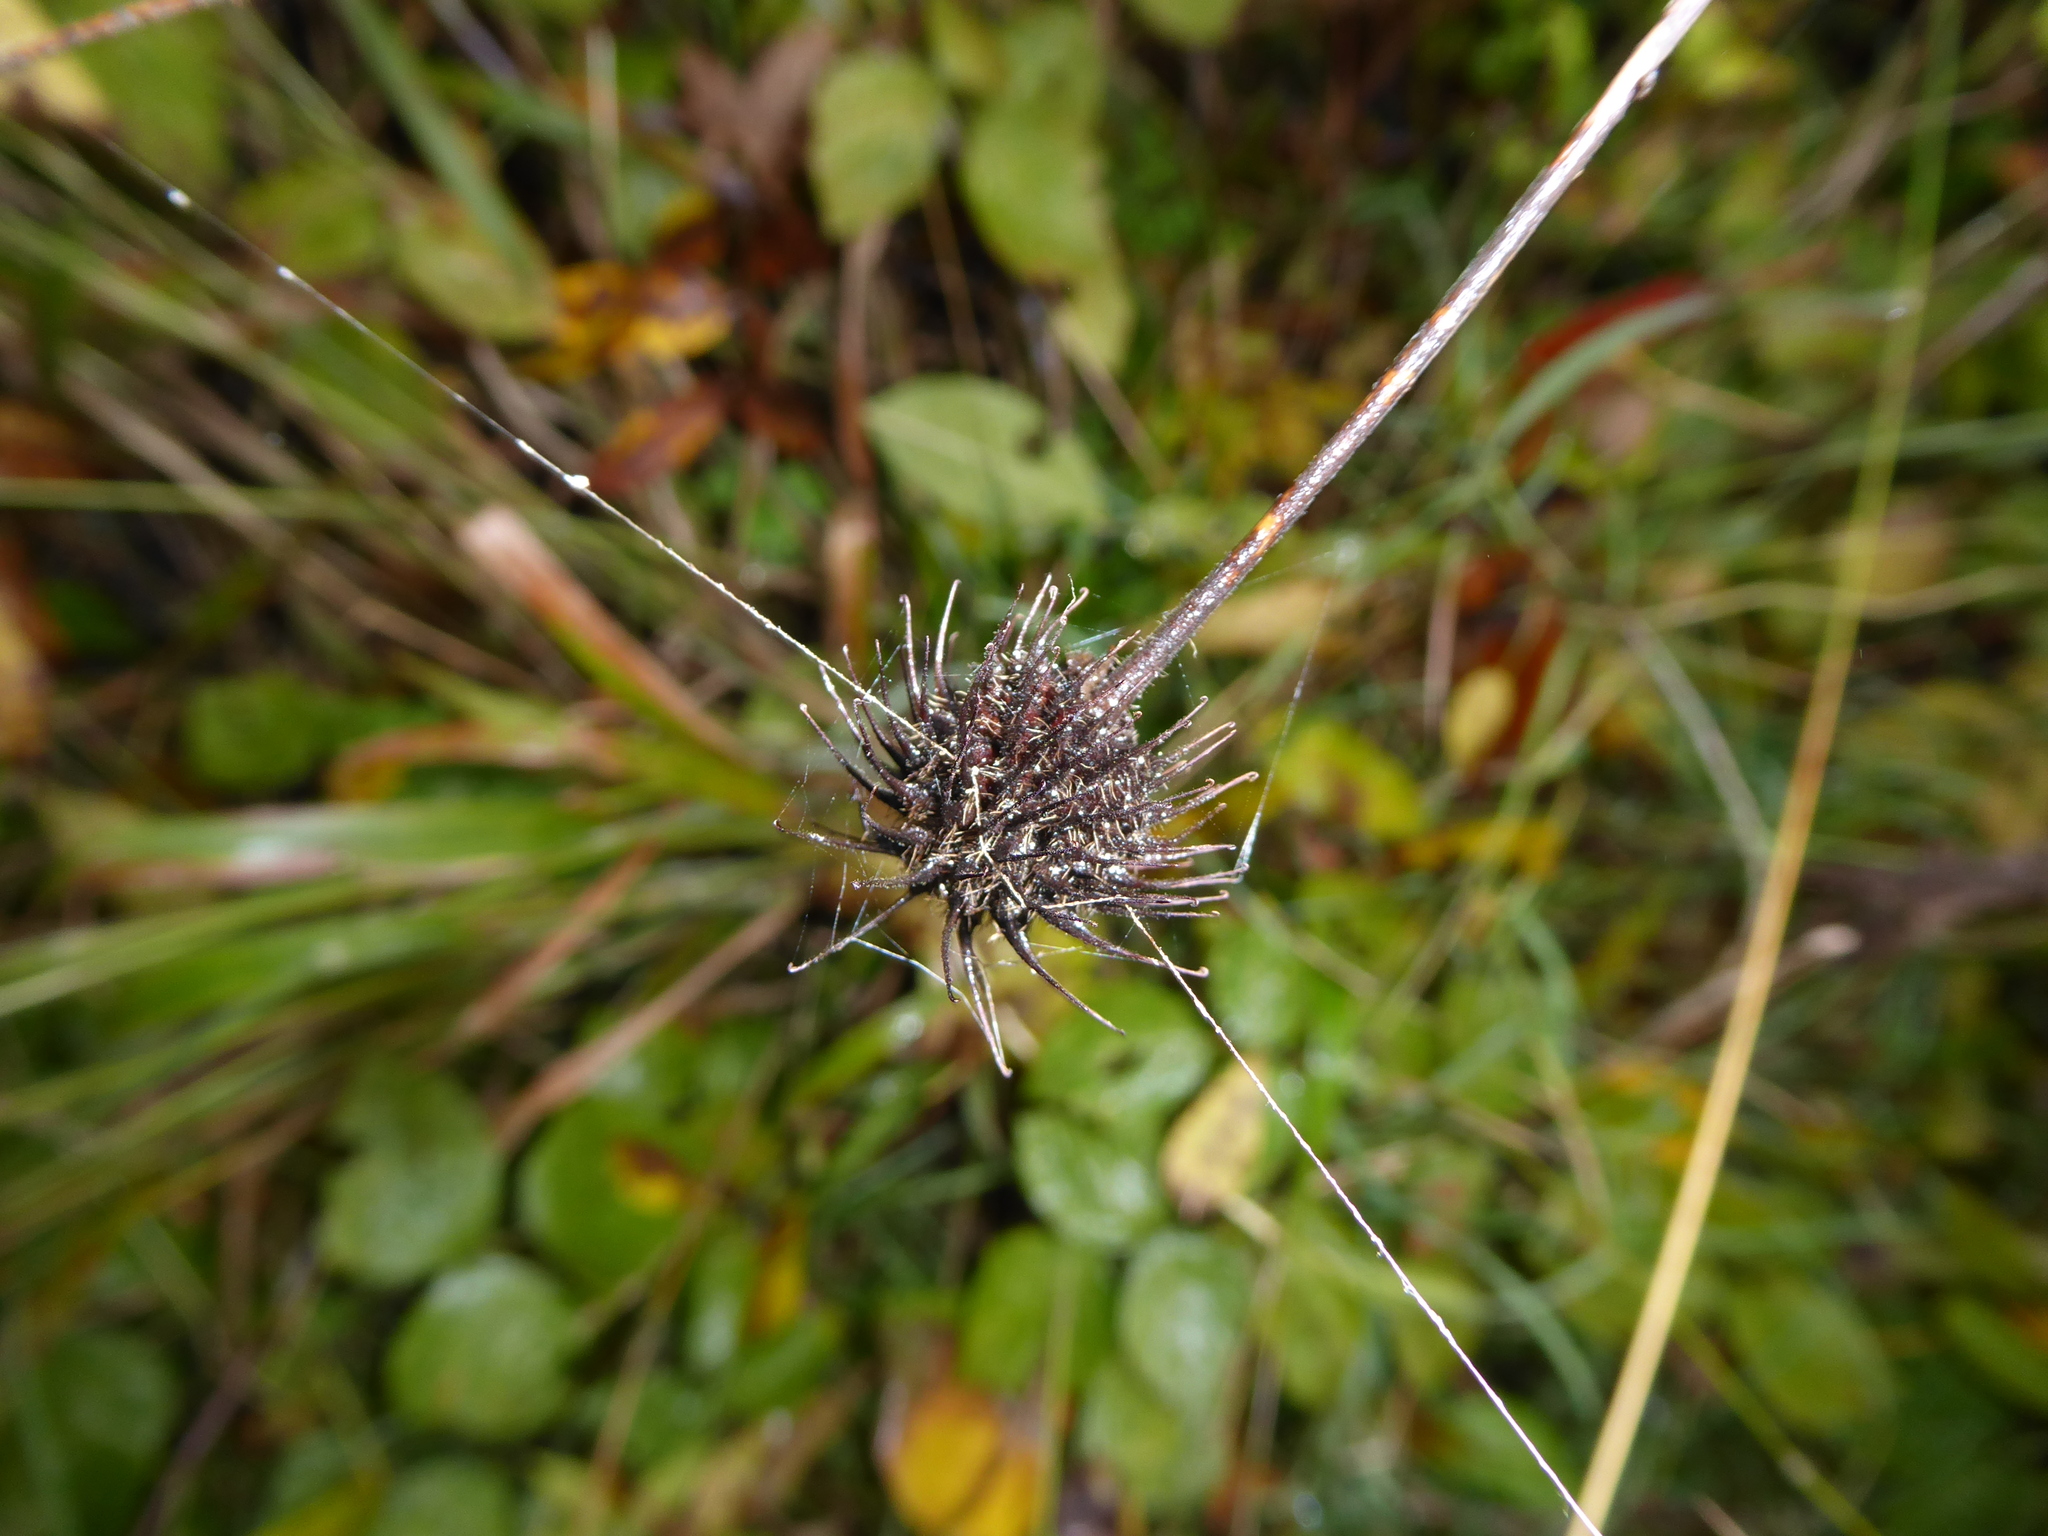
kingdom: Plantae
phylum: Tracheophyta
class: Magnoliopsida
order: Rosales
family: Rosaceae
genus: Geum
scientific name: Geum urbanum
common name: Wood avens
